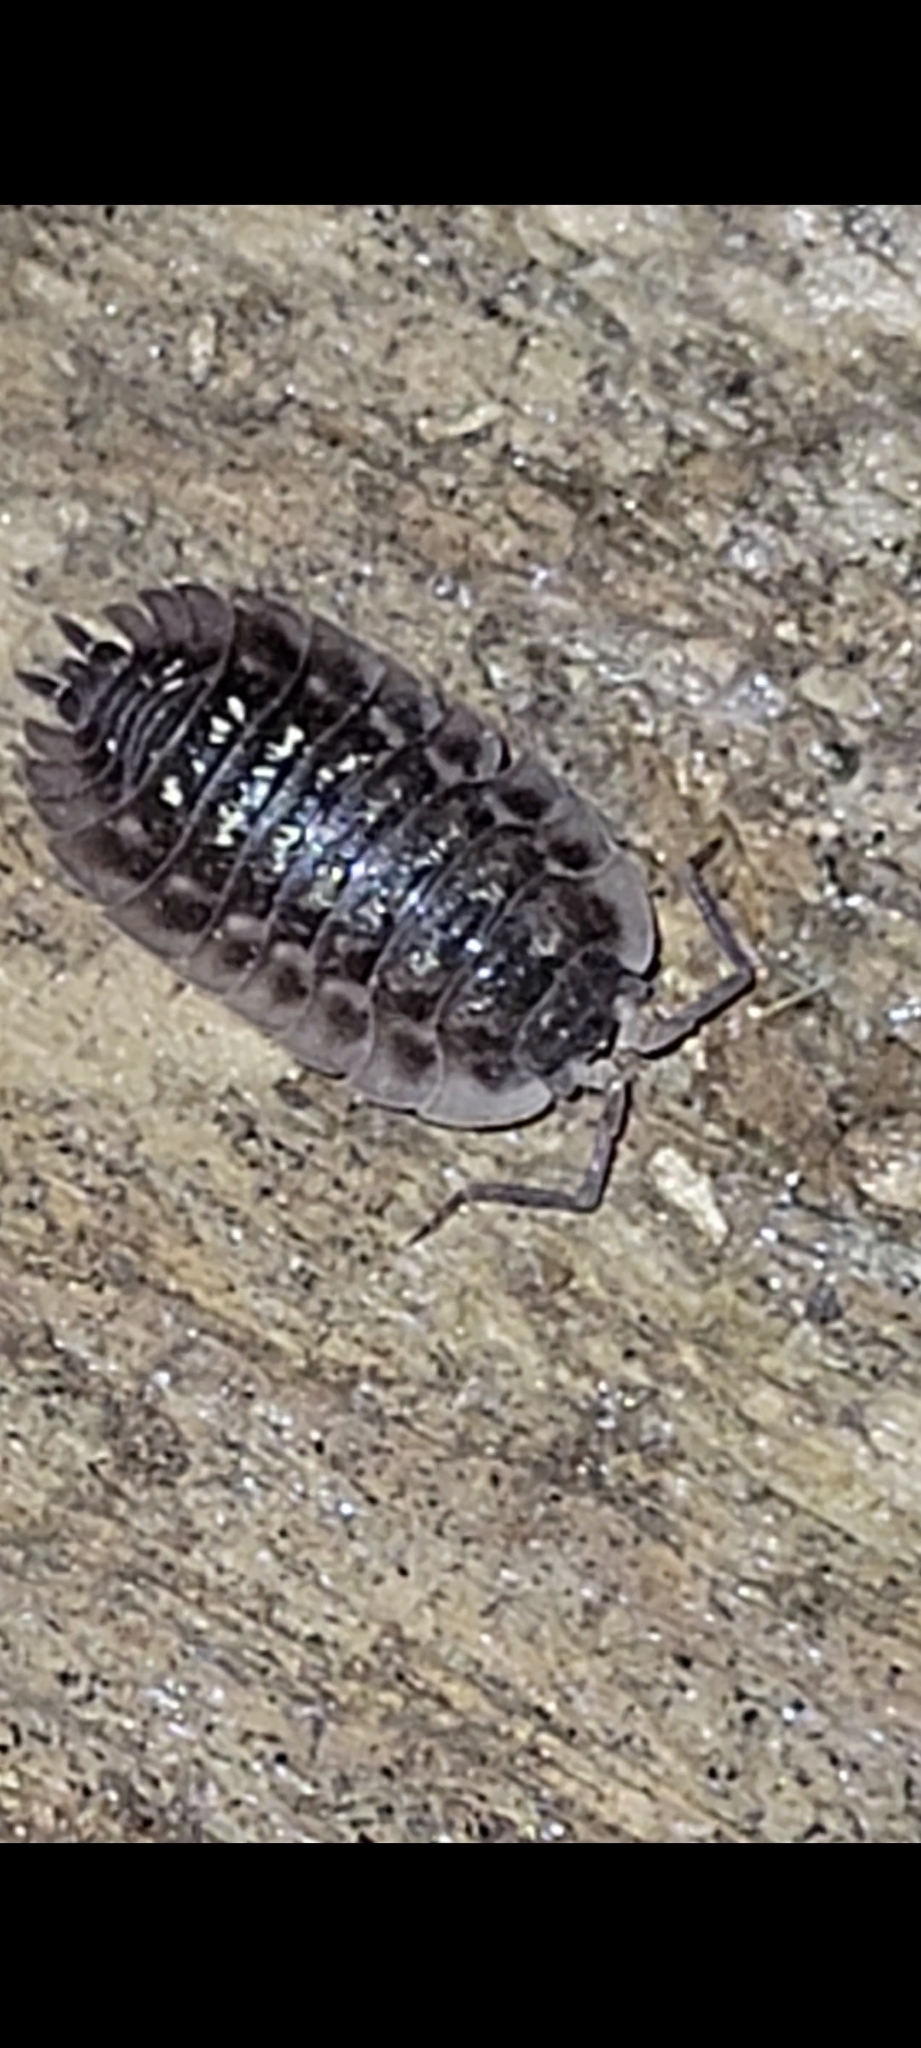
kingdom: Animalia
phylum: Arthropoda
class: Malacostraca
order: Isopoda
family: Oniscidae
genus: Oniscus
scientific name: Oniscus asellus
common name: Common shiny woodlouse
